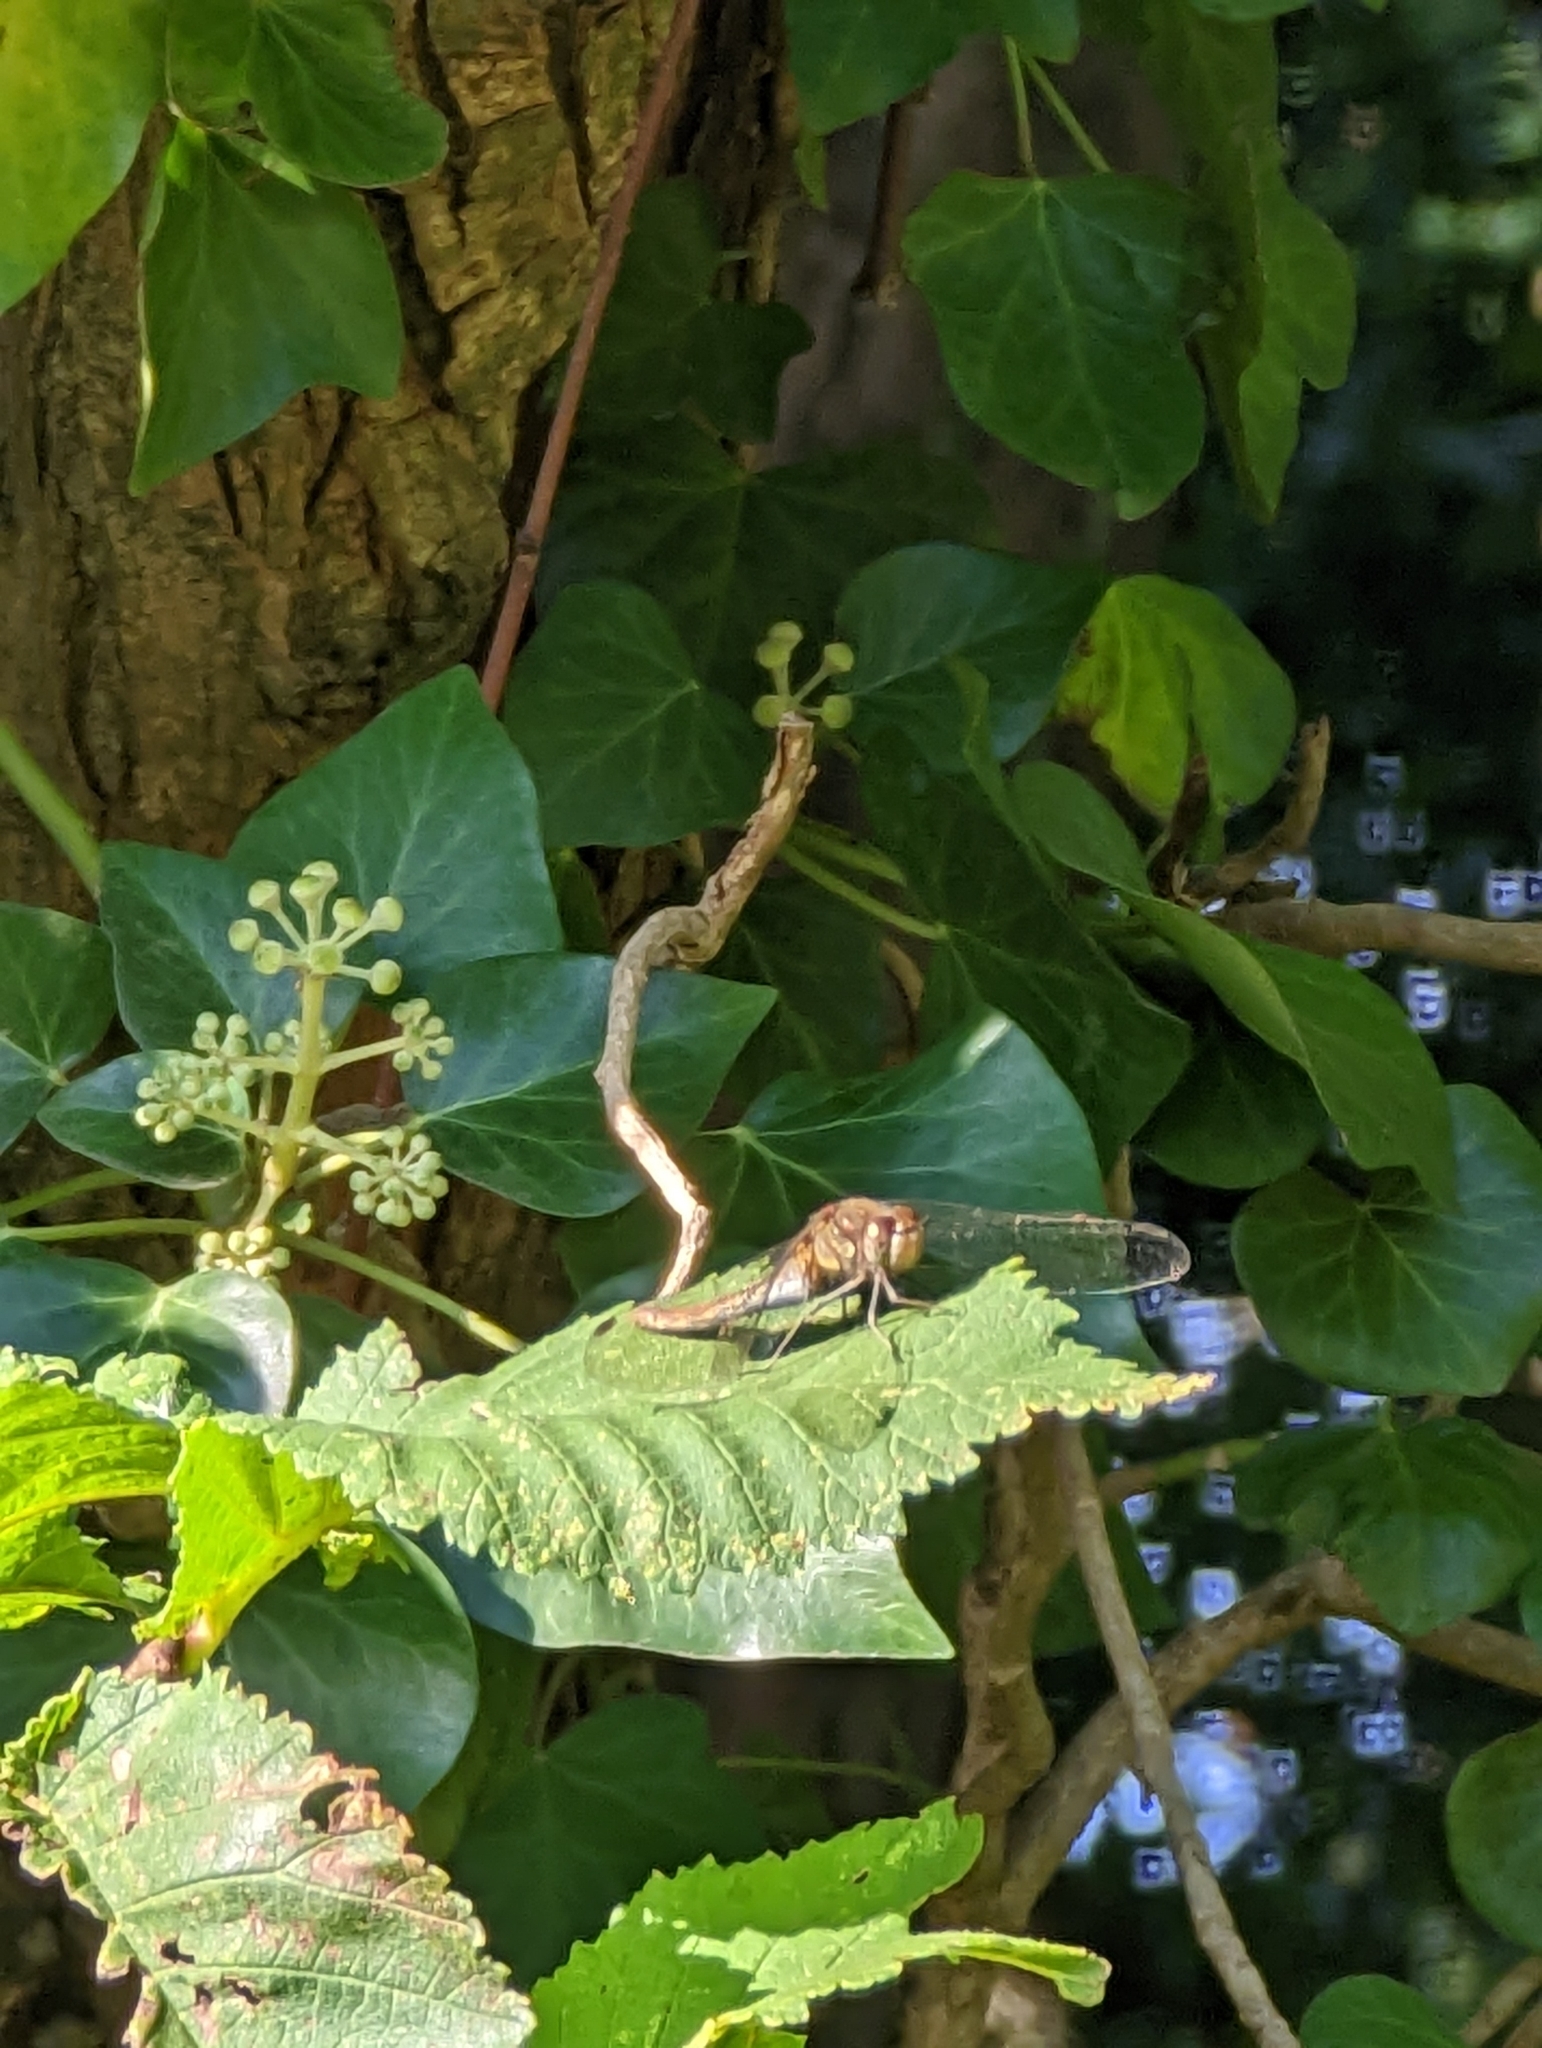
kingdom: Animalia
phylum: Arthropoda
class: Insecta
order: Odonata
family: Libellulidae
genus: Sympetrum
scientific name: Sympetrum striolatum
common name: Common darter
